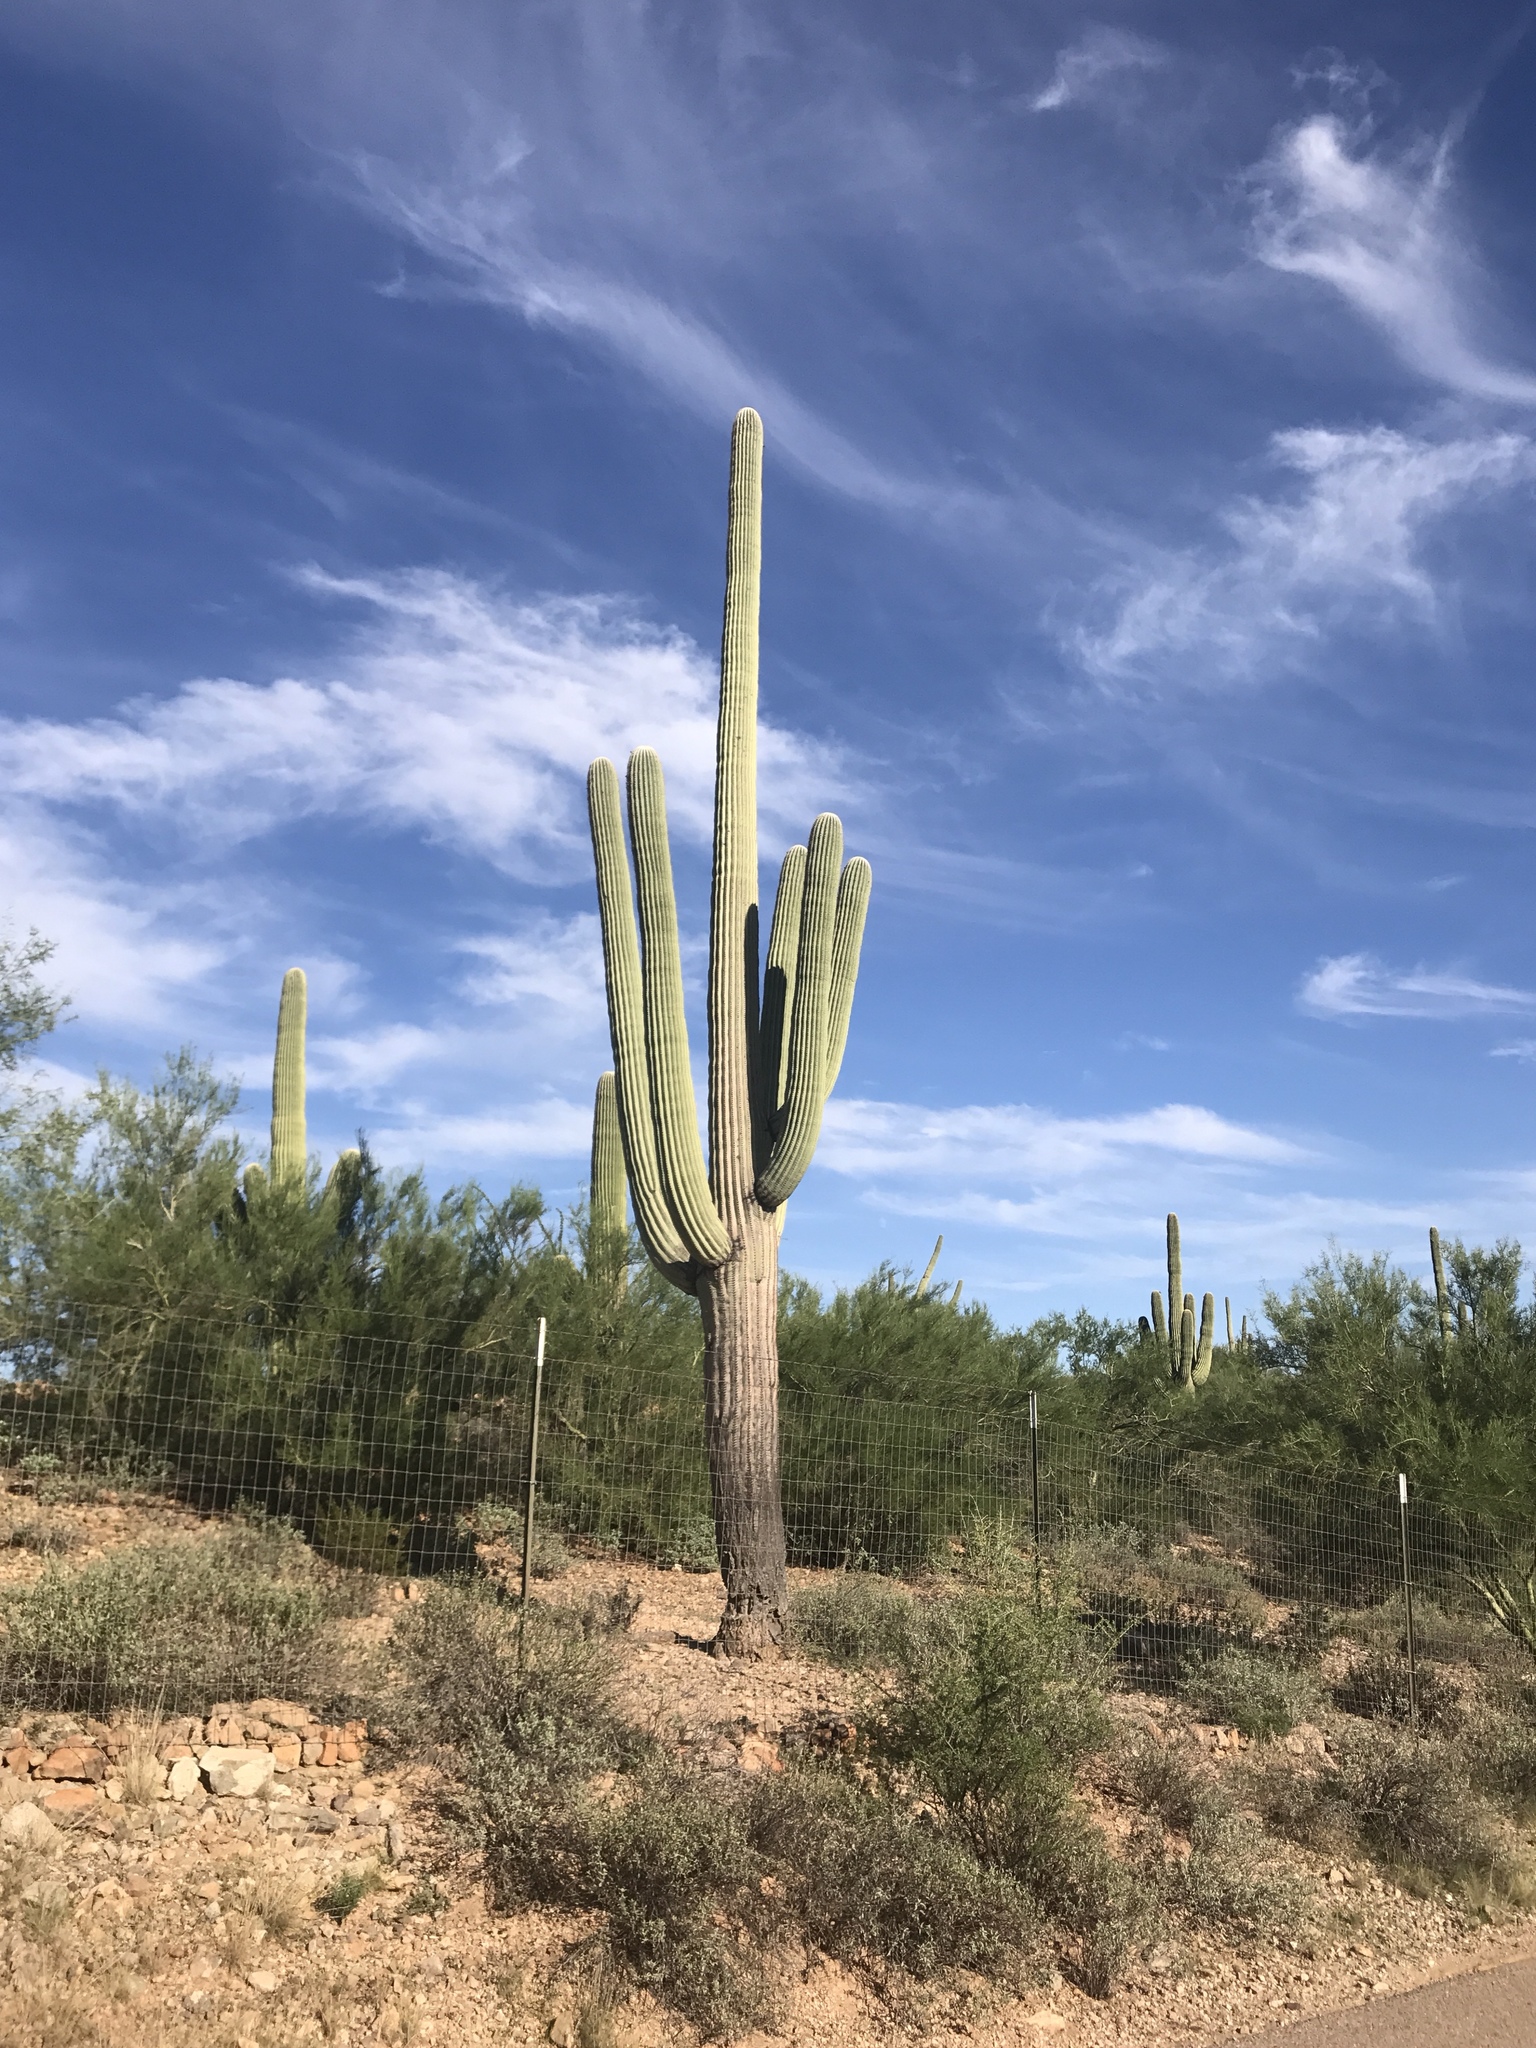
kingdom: Plantae
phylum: Tracheophyta
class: Magnoliopsida
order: Caryophyllales
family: Cactaceae
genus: Carnegiea
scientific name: Carnegiea gigantea
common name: Saguaro
